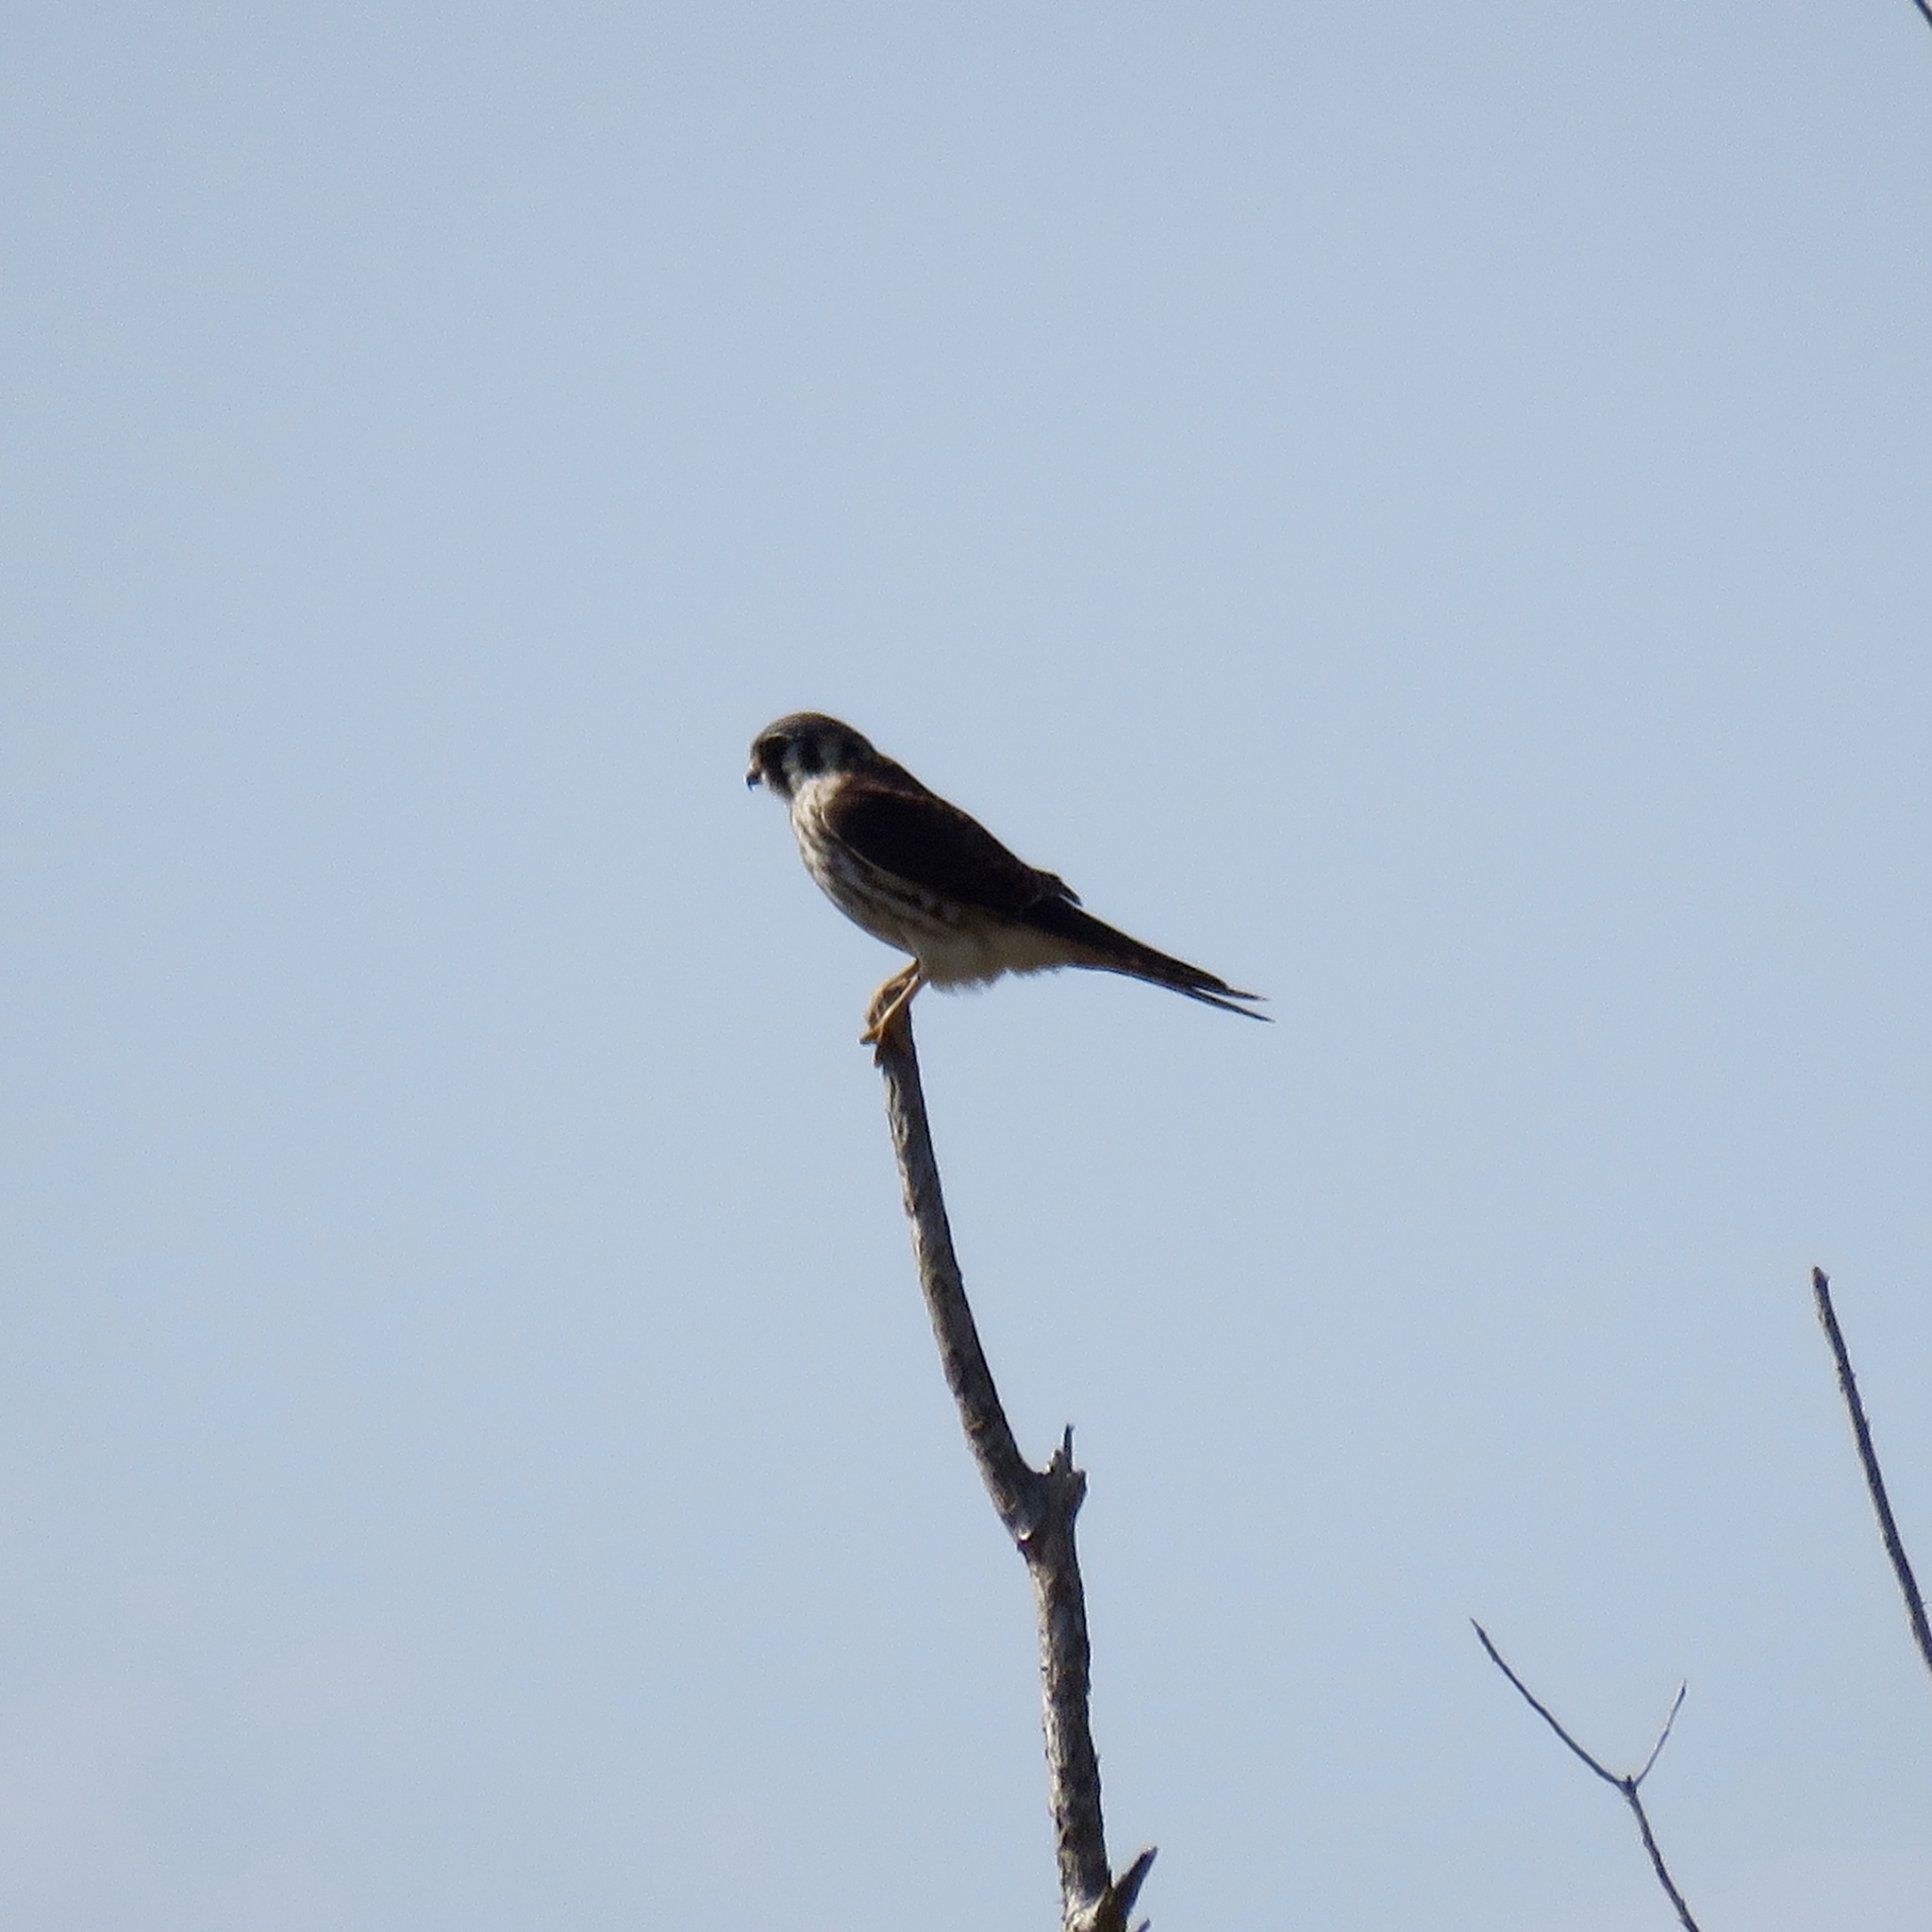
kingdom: Animalia
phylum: Chordata
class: Aves
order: Falconiformes
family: Falconidae
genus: Falco
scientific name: Falco sparverius
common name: American kestrel
